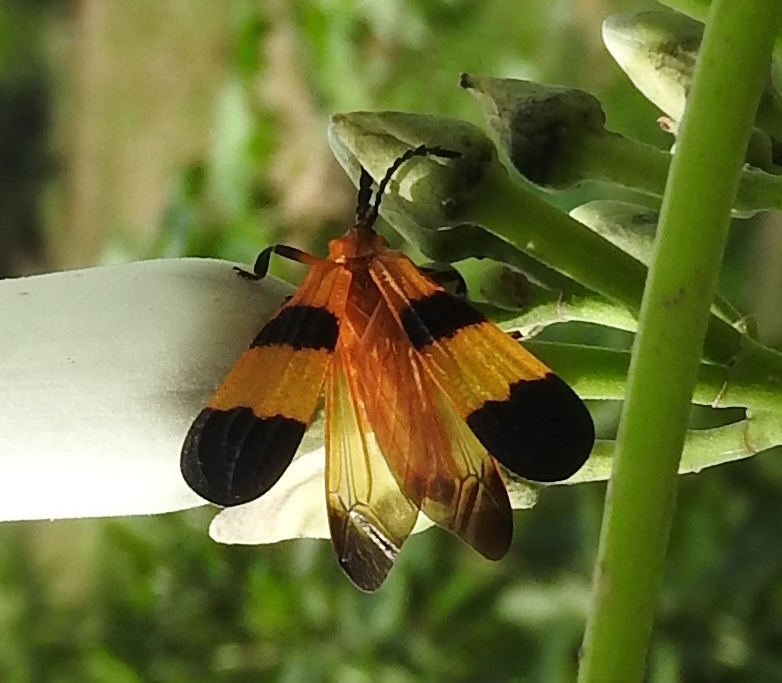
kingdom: Animalia
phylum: Arthropoda
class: Insecta
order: Coleoptera
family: Lycidae
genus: Calopteron
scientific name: Calopteron
